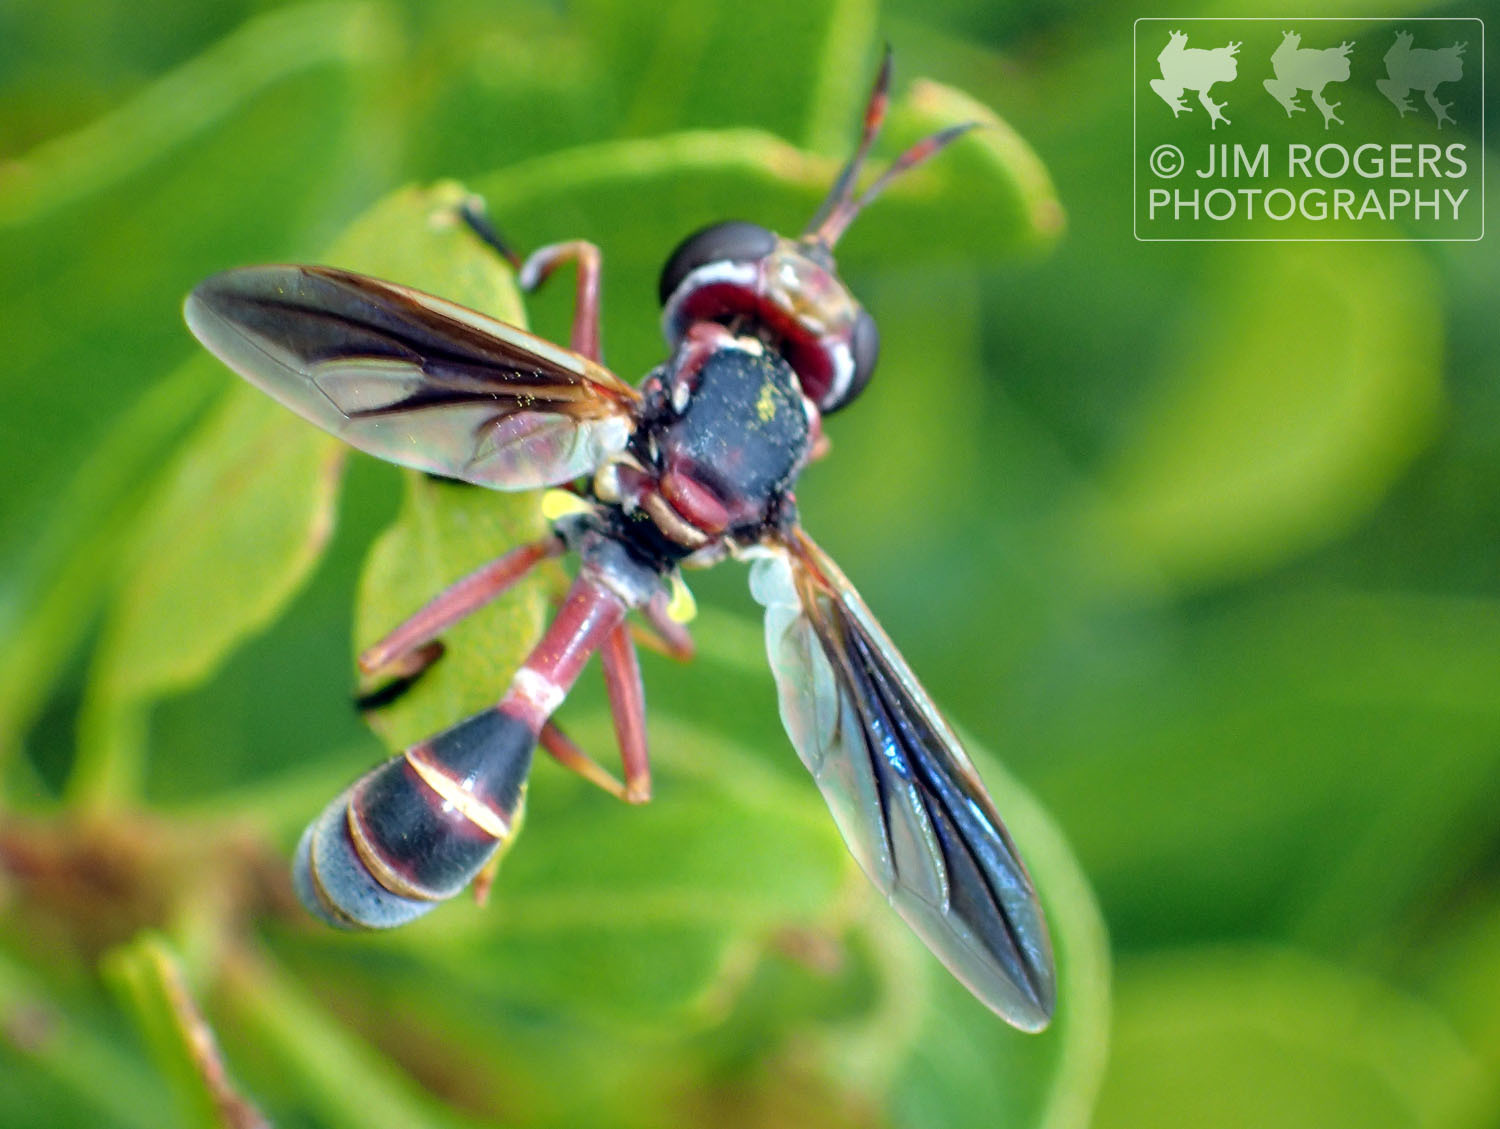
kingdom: Animalia
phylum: Arthropoda
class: Insecta
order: Diptera
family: Conopidae
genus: Physoconops
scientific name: Physoconops excisus
